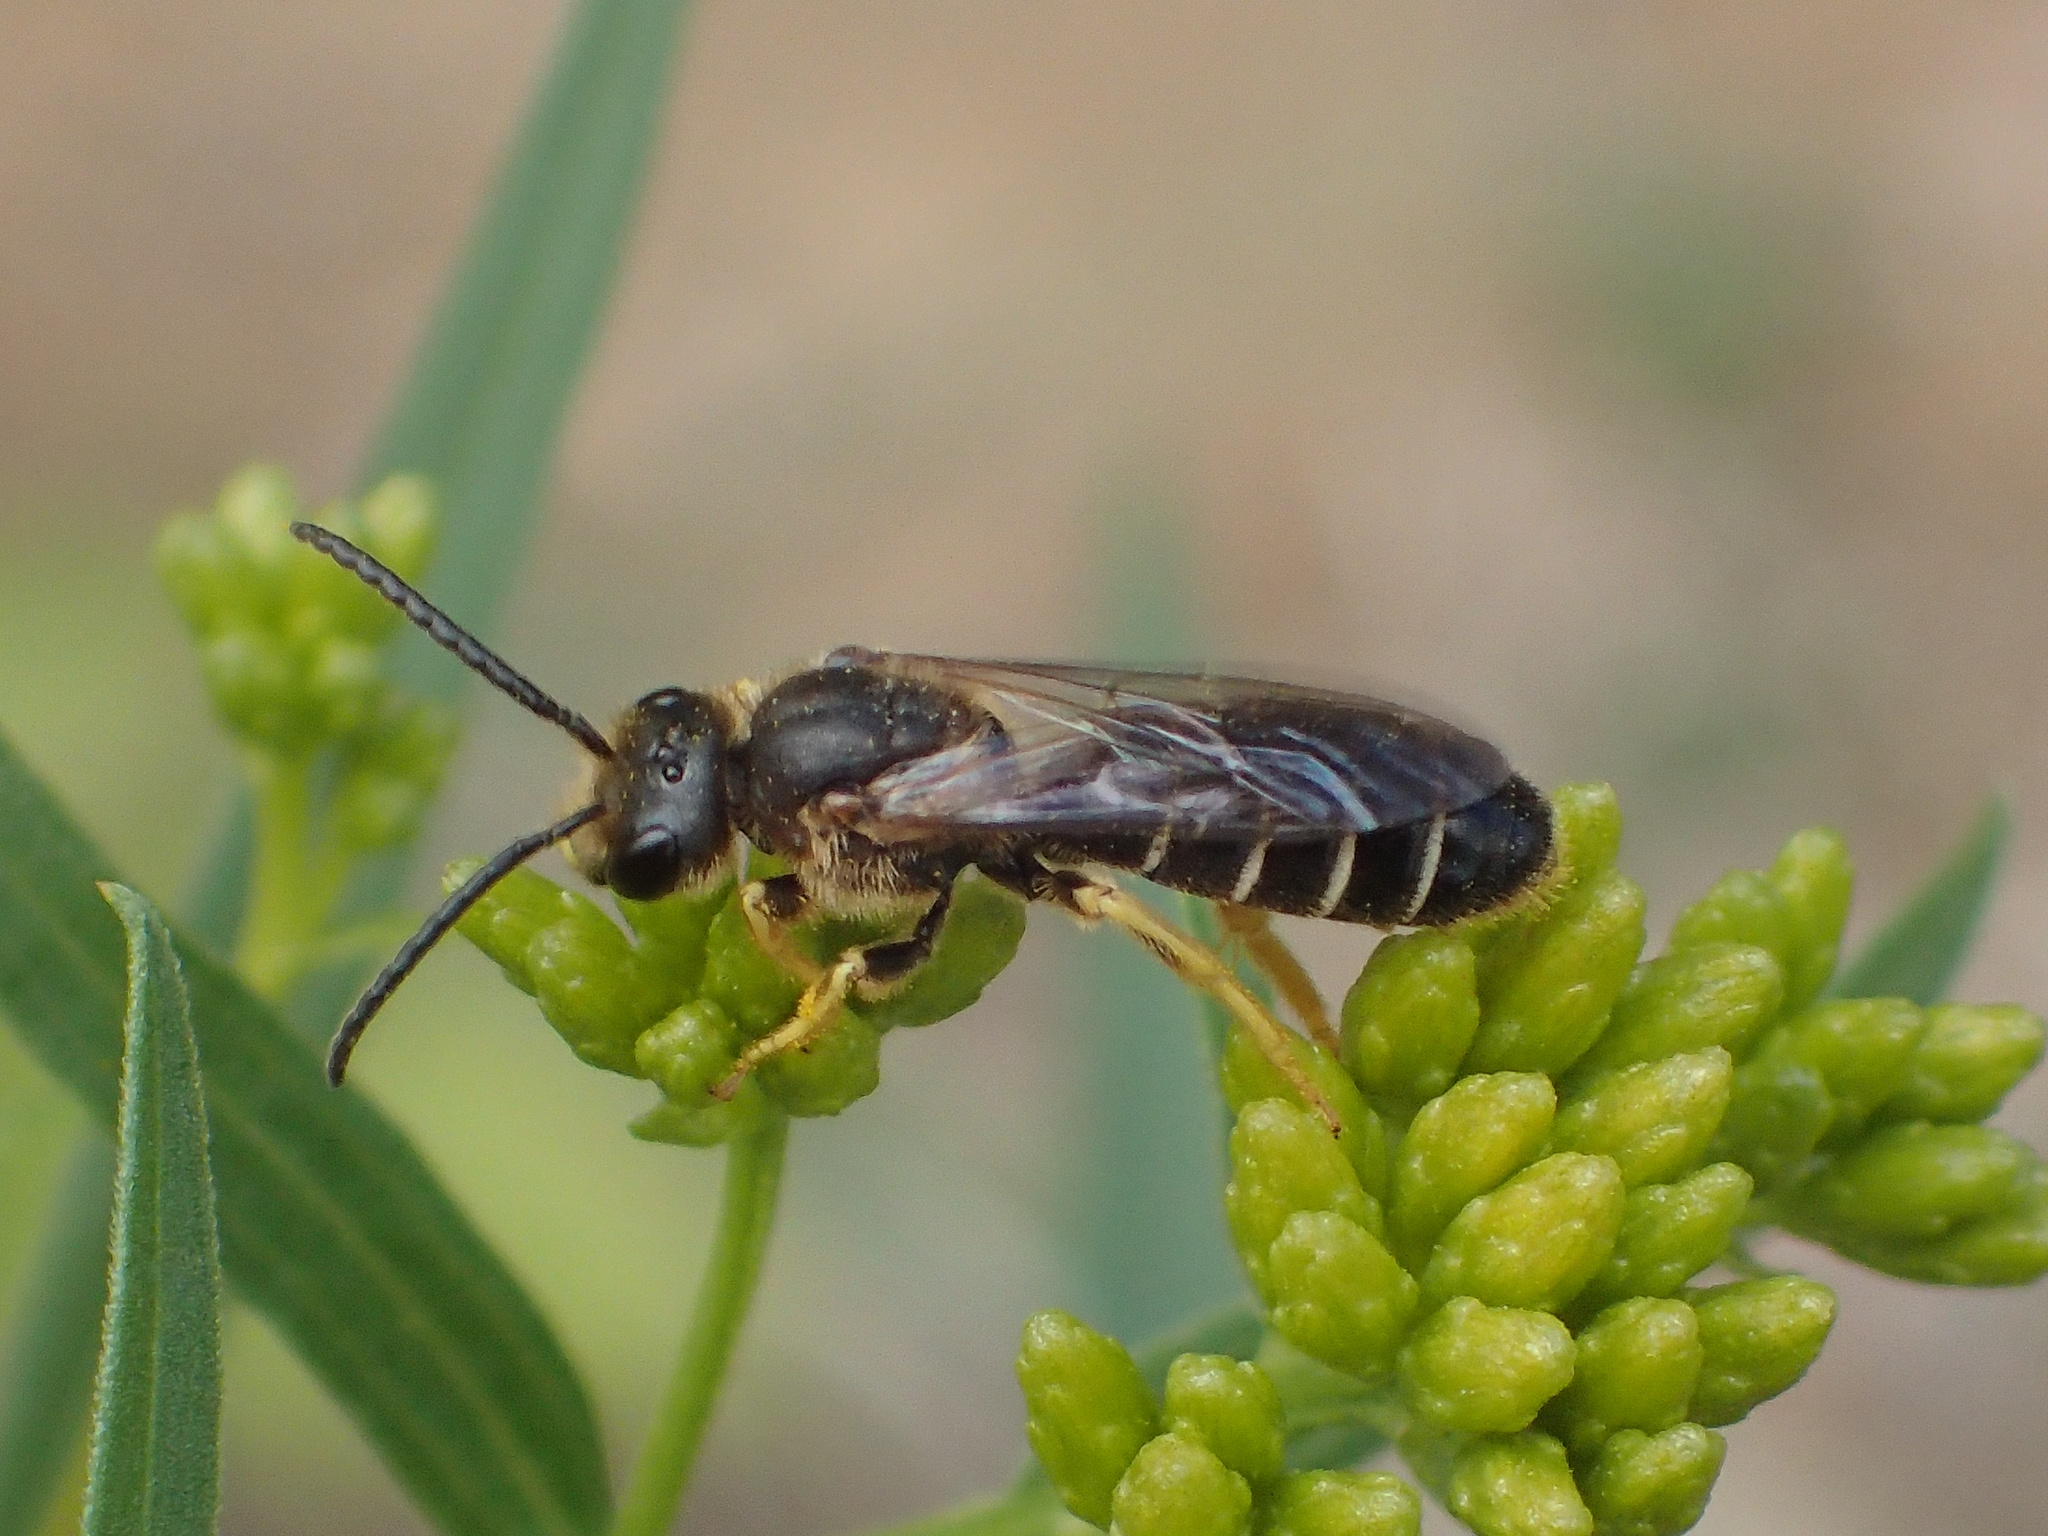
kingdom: Animalia
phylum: Arthropoda
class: Insecta
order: Hymenoptera
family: Halictidae
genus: Halictus
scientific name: Halictus rubicundus
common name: Orange-legged furrow bee
